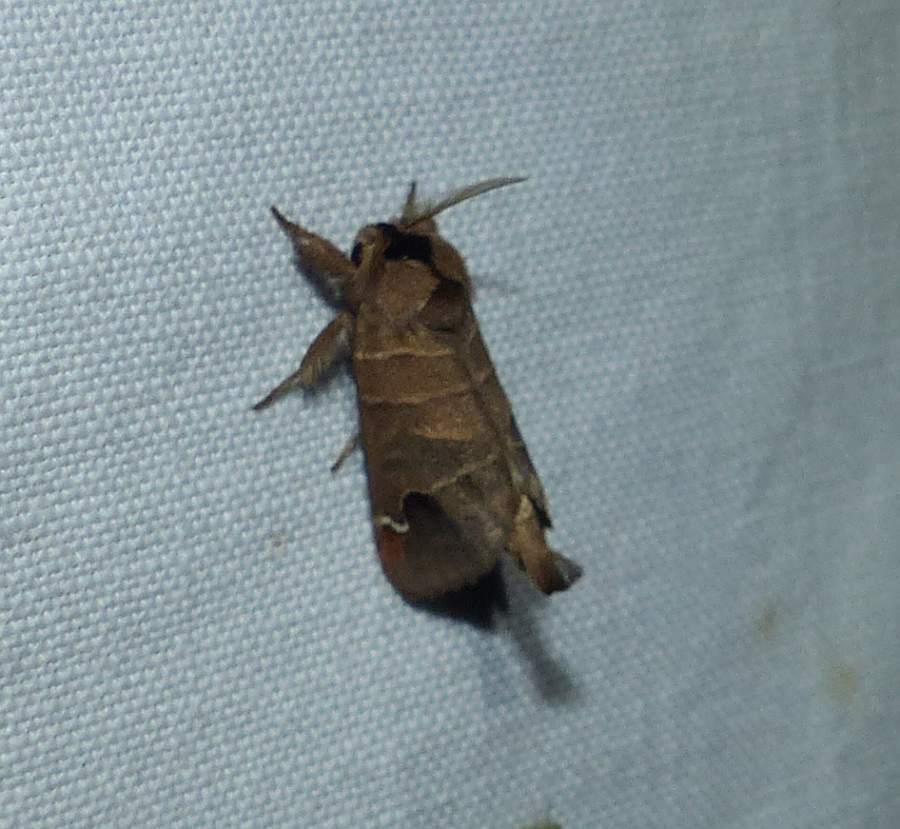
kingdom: Animalia
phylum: Arthropoda
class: Insecta
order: Lepidoptera
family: Notodontidae
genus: Clostera
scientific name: Clostera albosigma
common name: Sigmoid prominent
